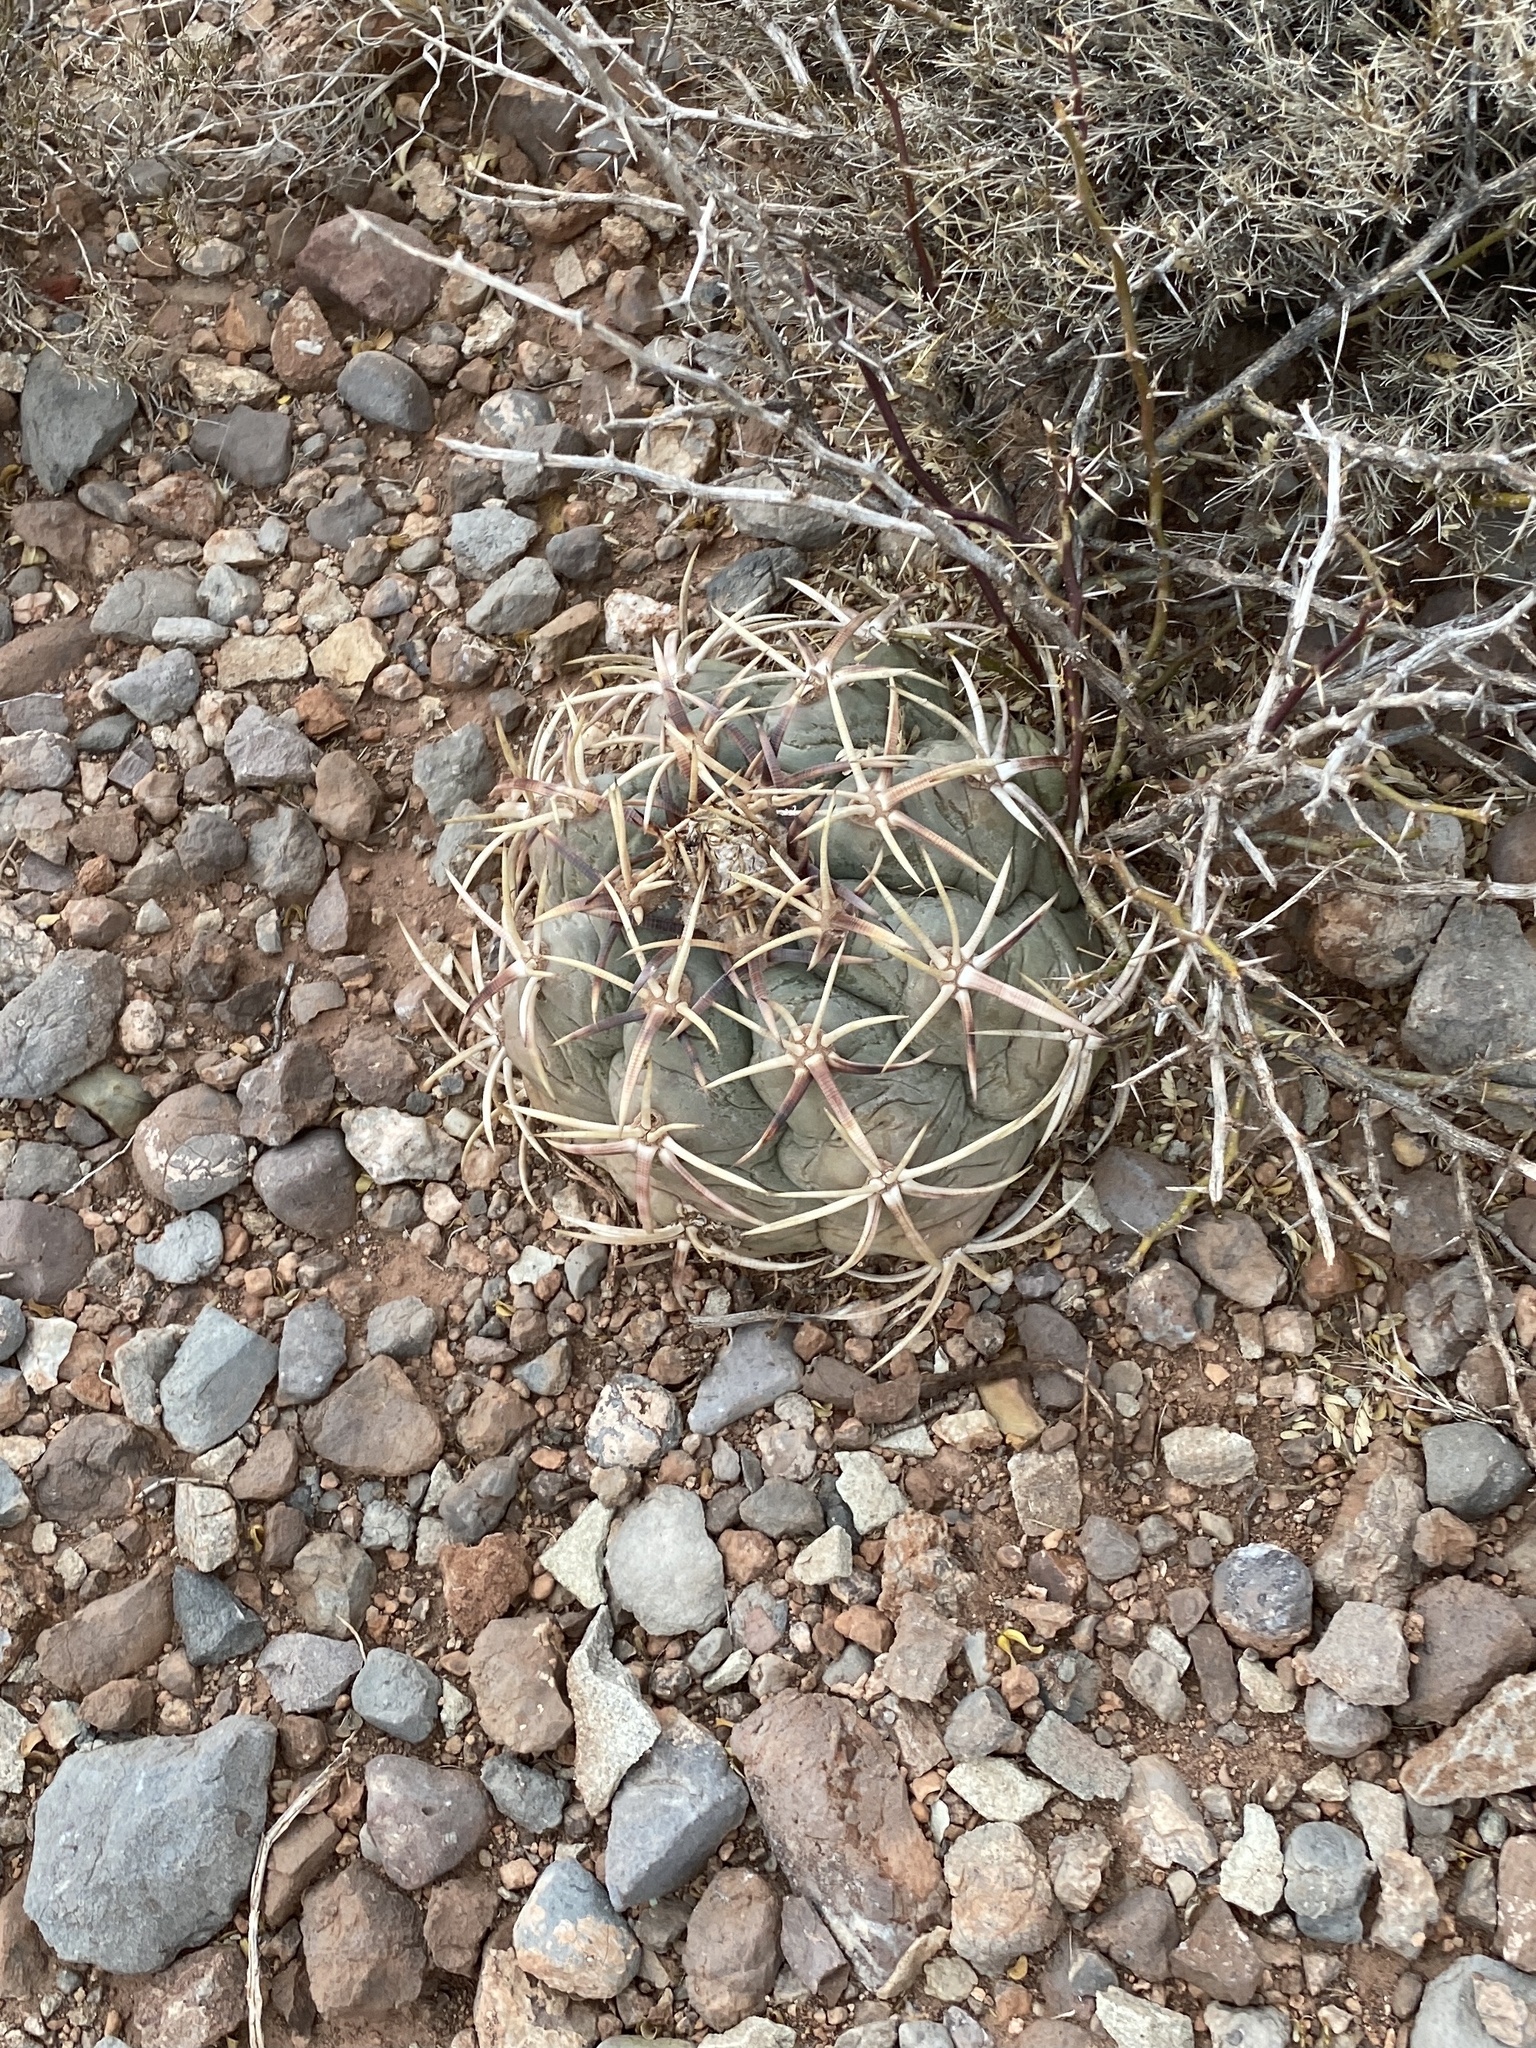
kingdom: Plantae
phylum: Tracheophyta
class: Magnoliopsida
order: Caryophyllales
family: Cactaceae
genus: Echinocactus
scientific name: Echinocactus horizonthalonius
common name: Devilshead
